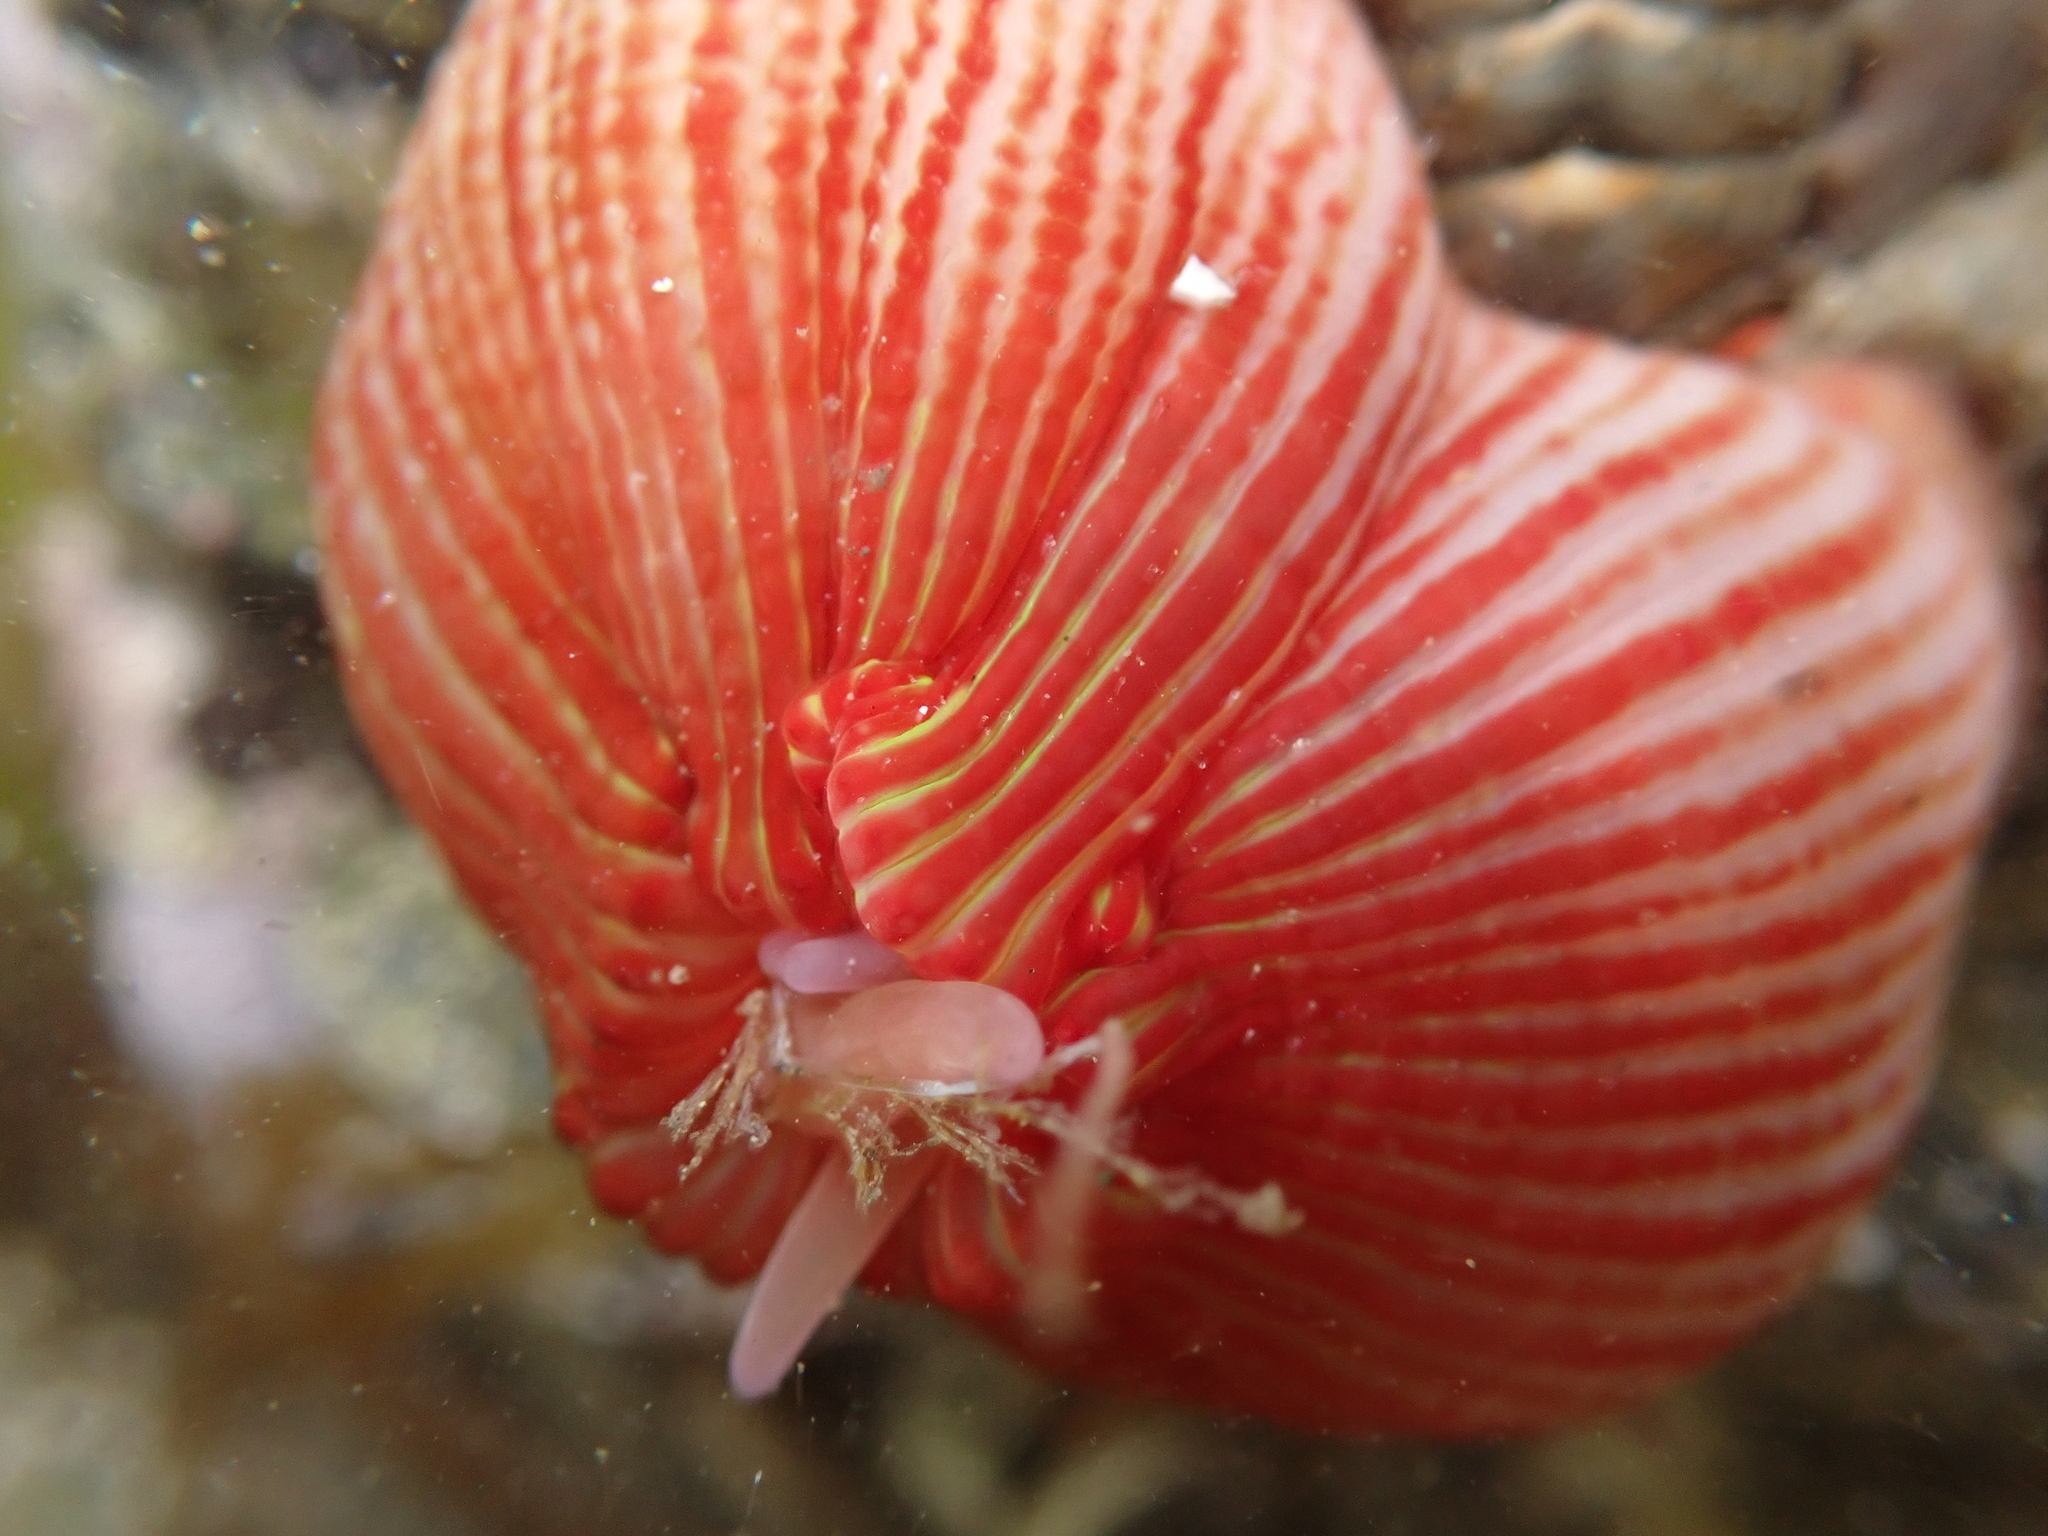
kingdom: Animalia
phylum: Cnidaria
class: Anthozoa
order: Actiniaria
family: Actiniidae
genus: Epiactis
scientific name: Epiactis thompsoni
